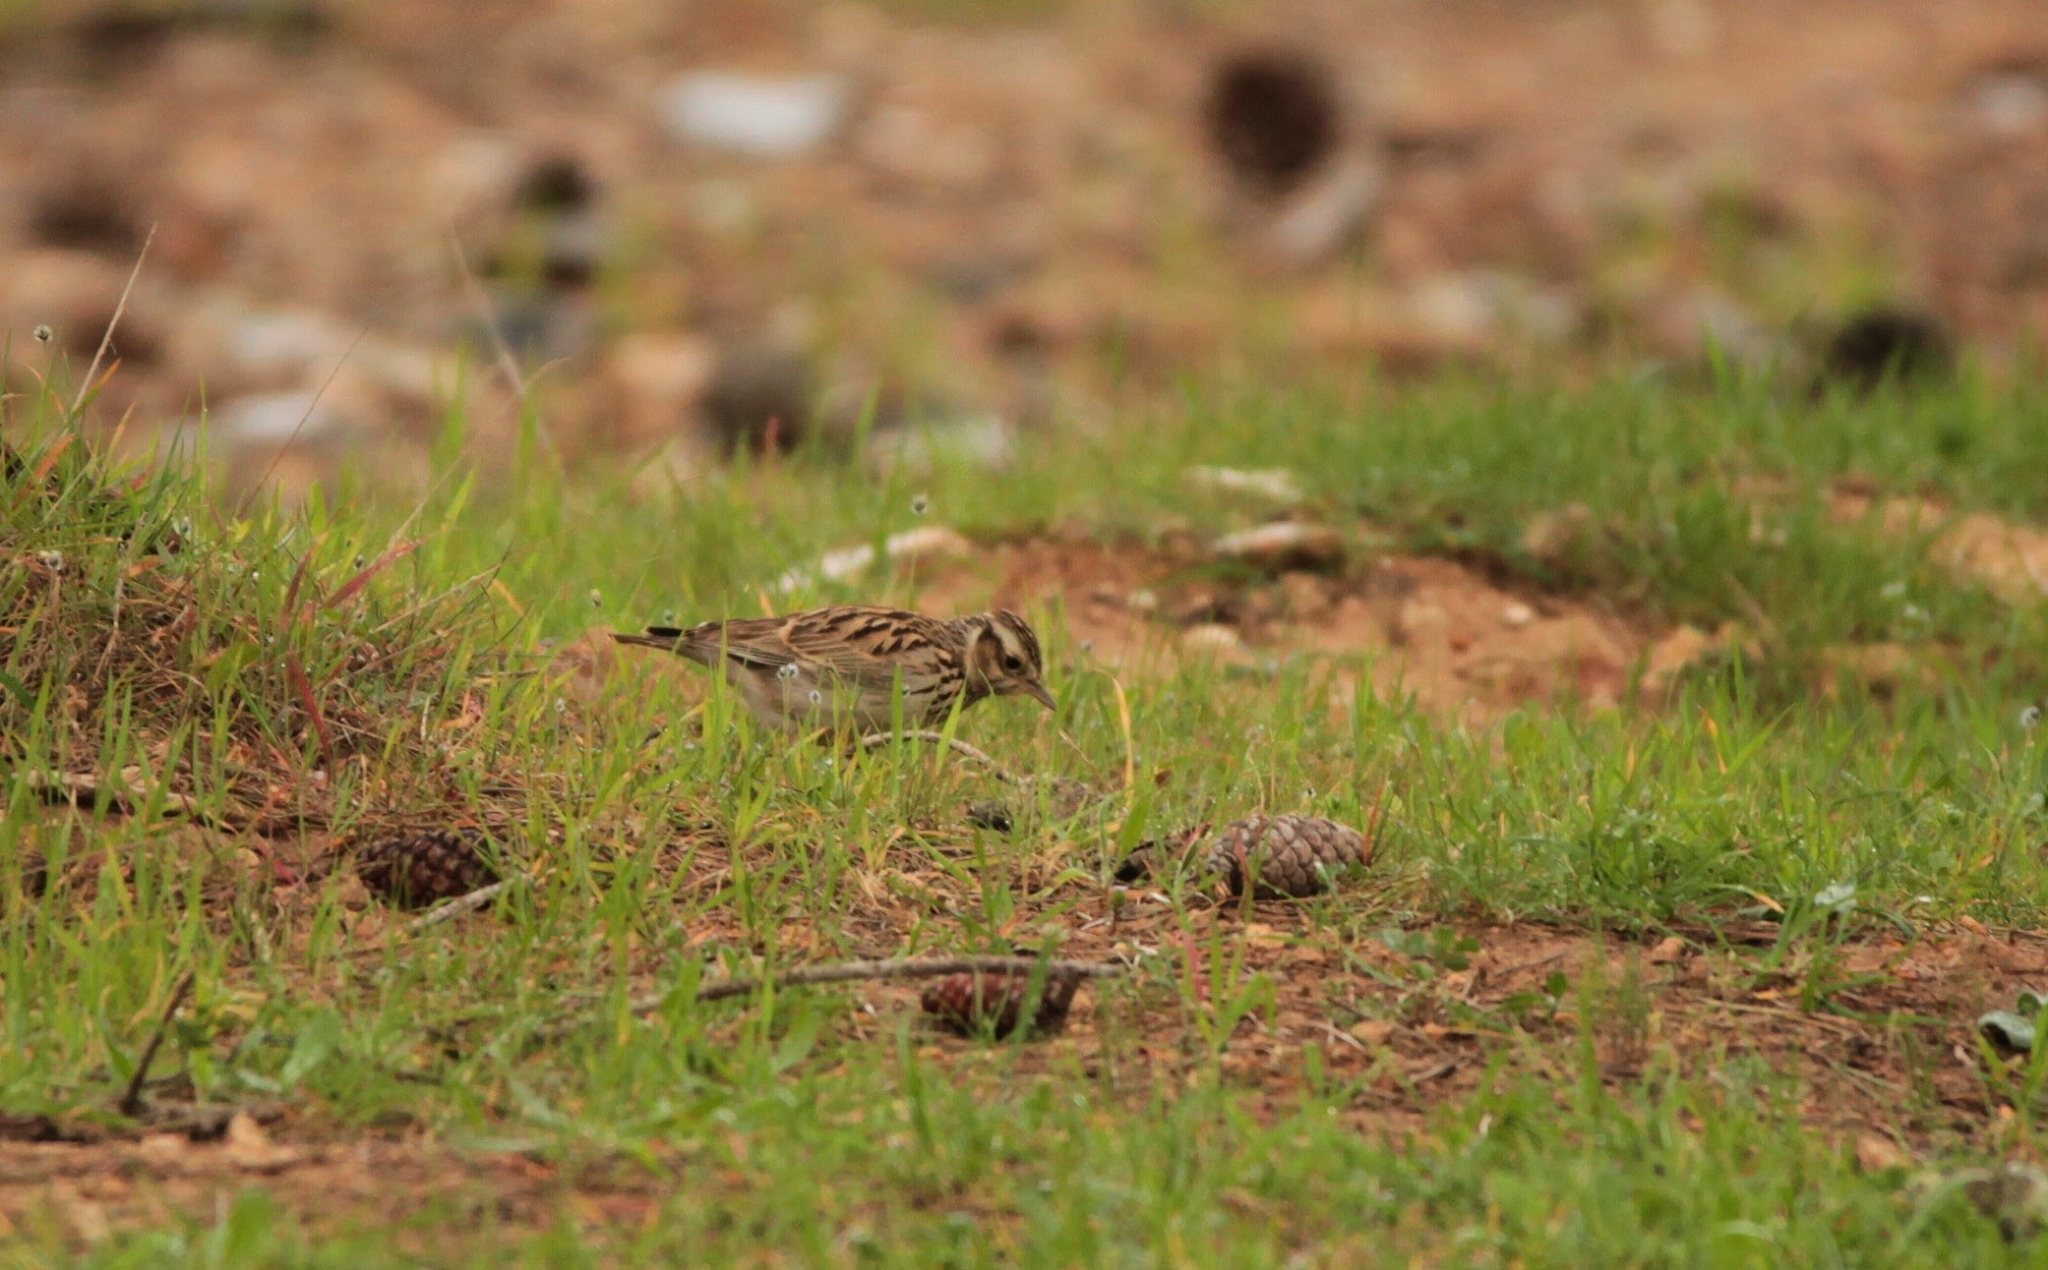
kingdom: Animalia
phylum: Chordata
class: Aves
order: Passeriformes
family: Alaudidae
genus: Lullula
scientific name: Lullula arborea
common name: Woodlark
